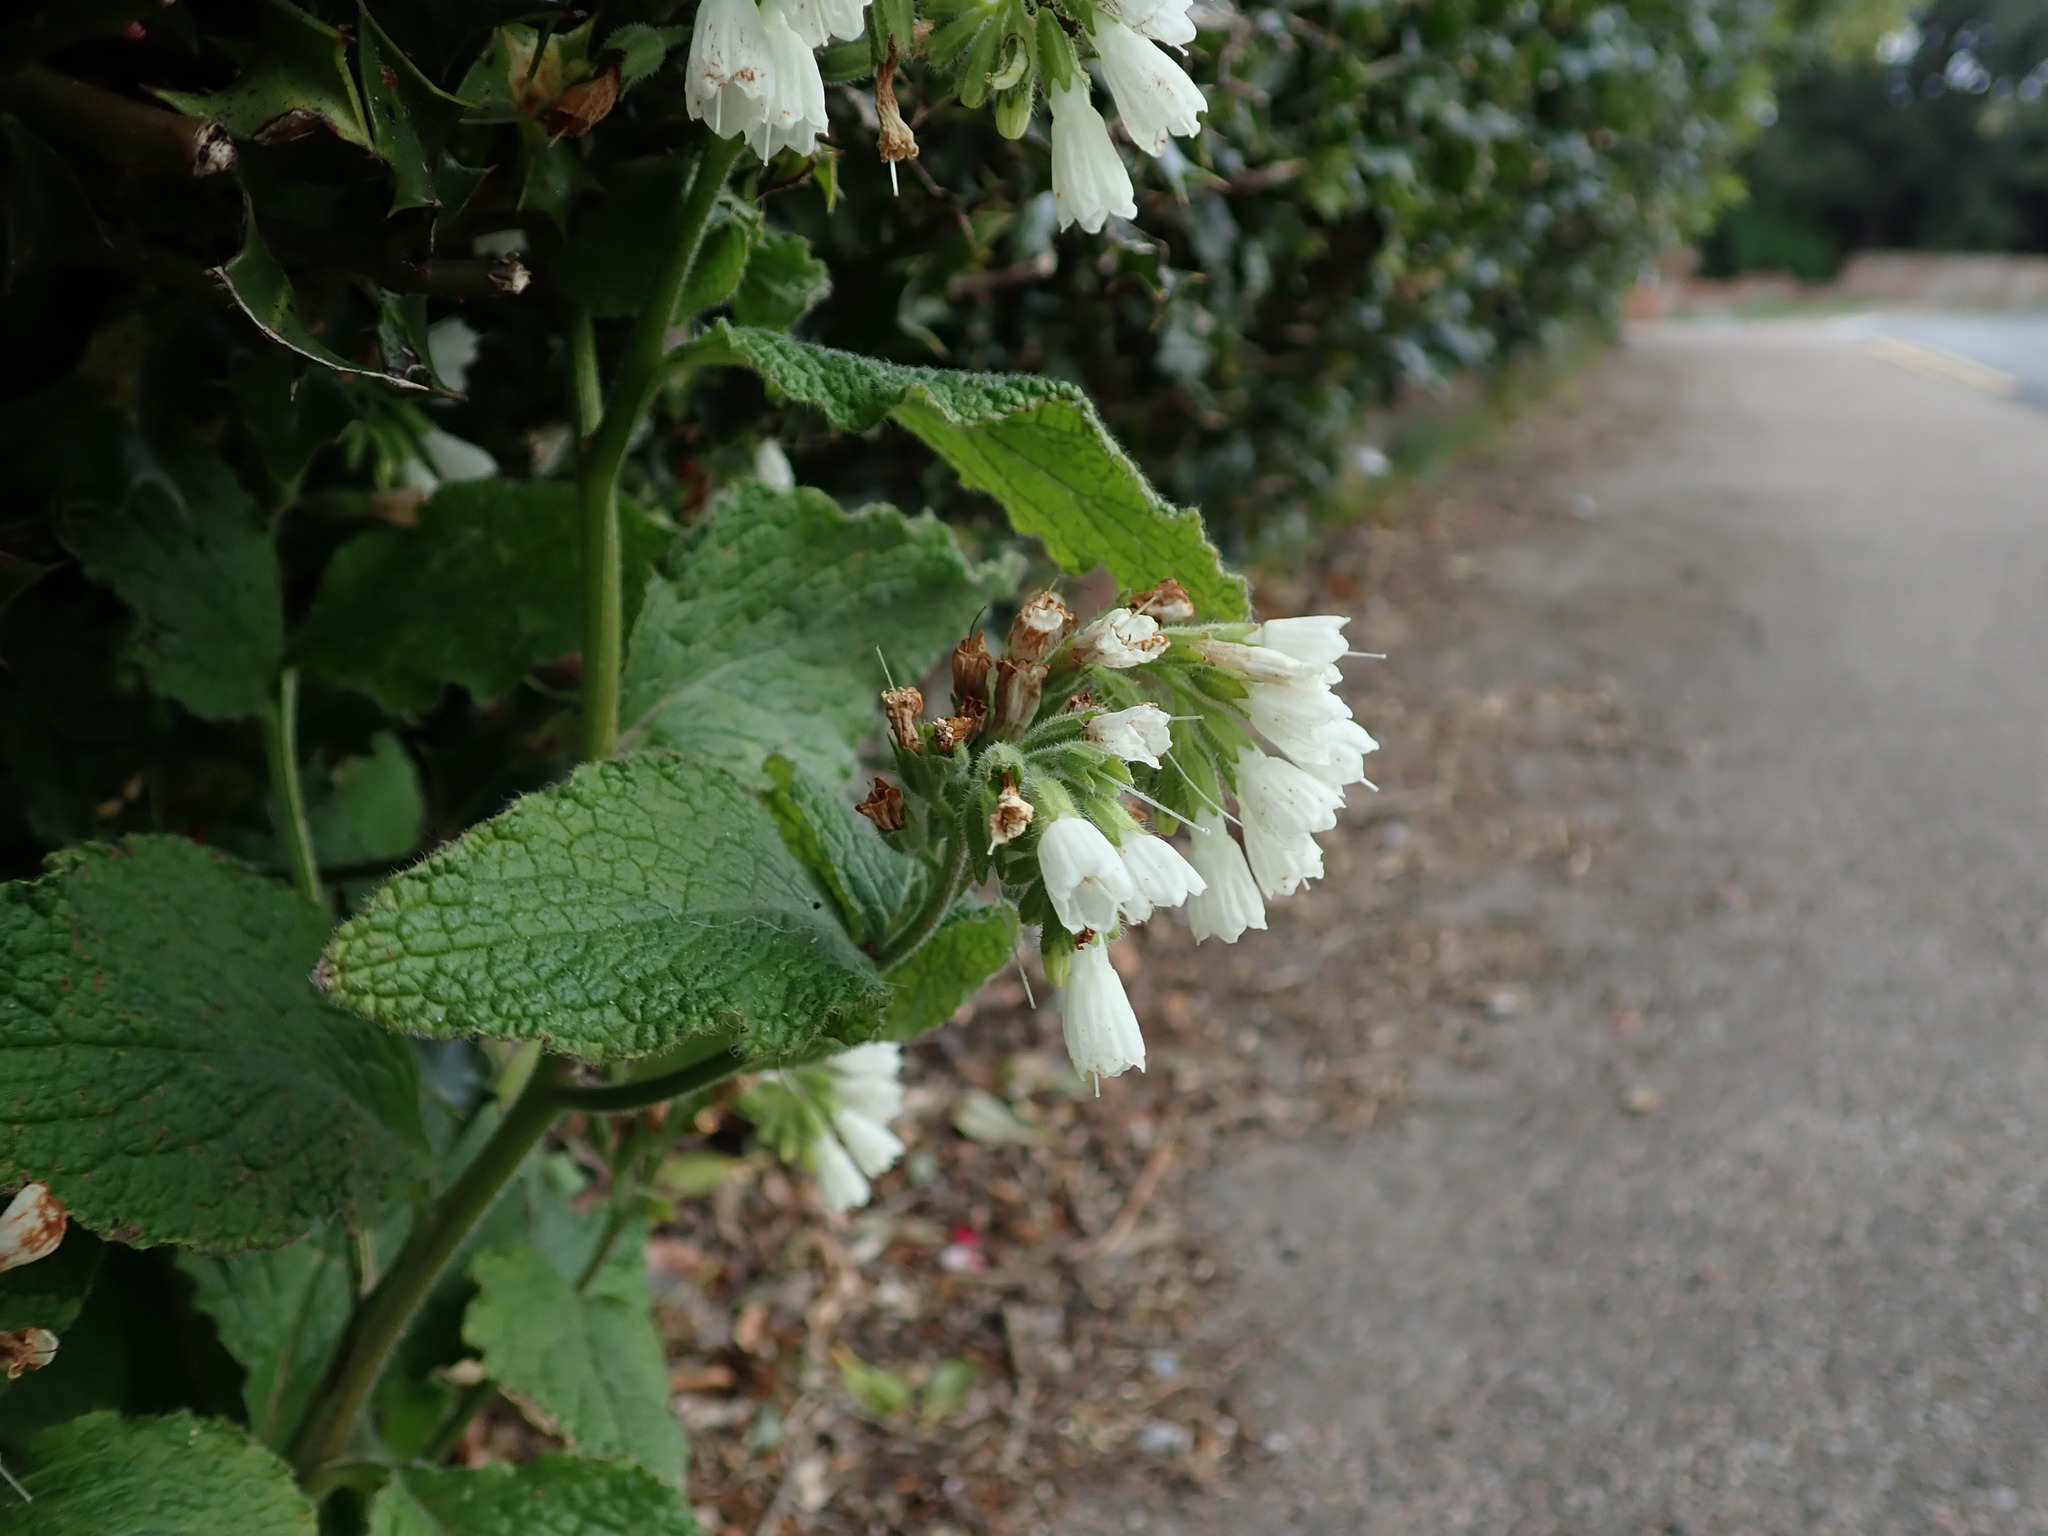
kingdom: Plantae
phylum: Tracheophyta
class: Magnoliopsida
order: Boraginales
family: Boraginaceae
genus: Symphytum
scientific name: Symphytum orientale
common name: White comfrey
